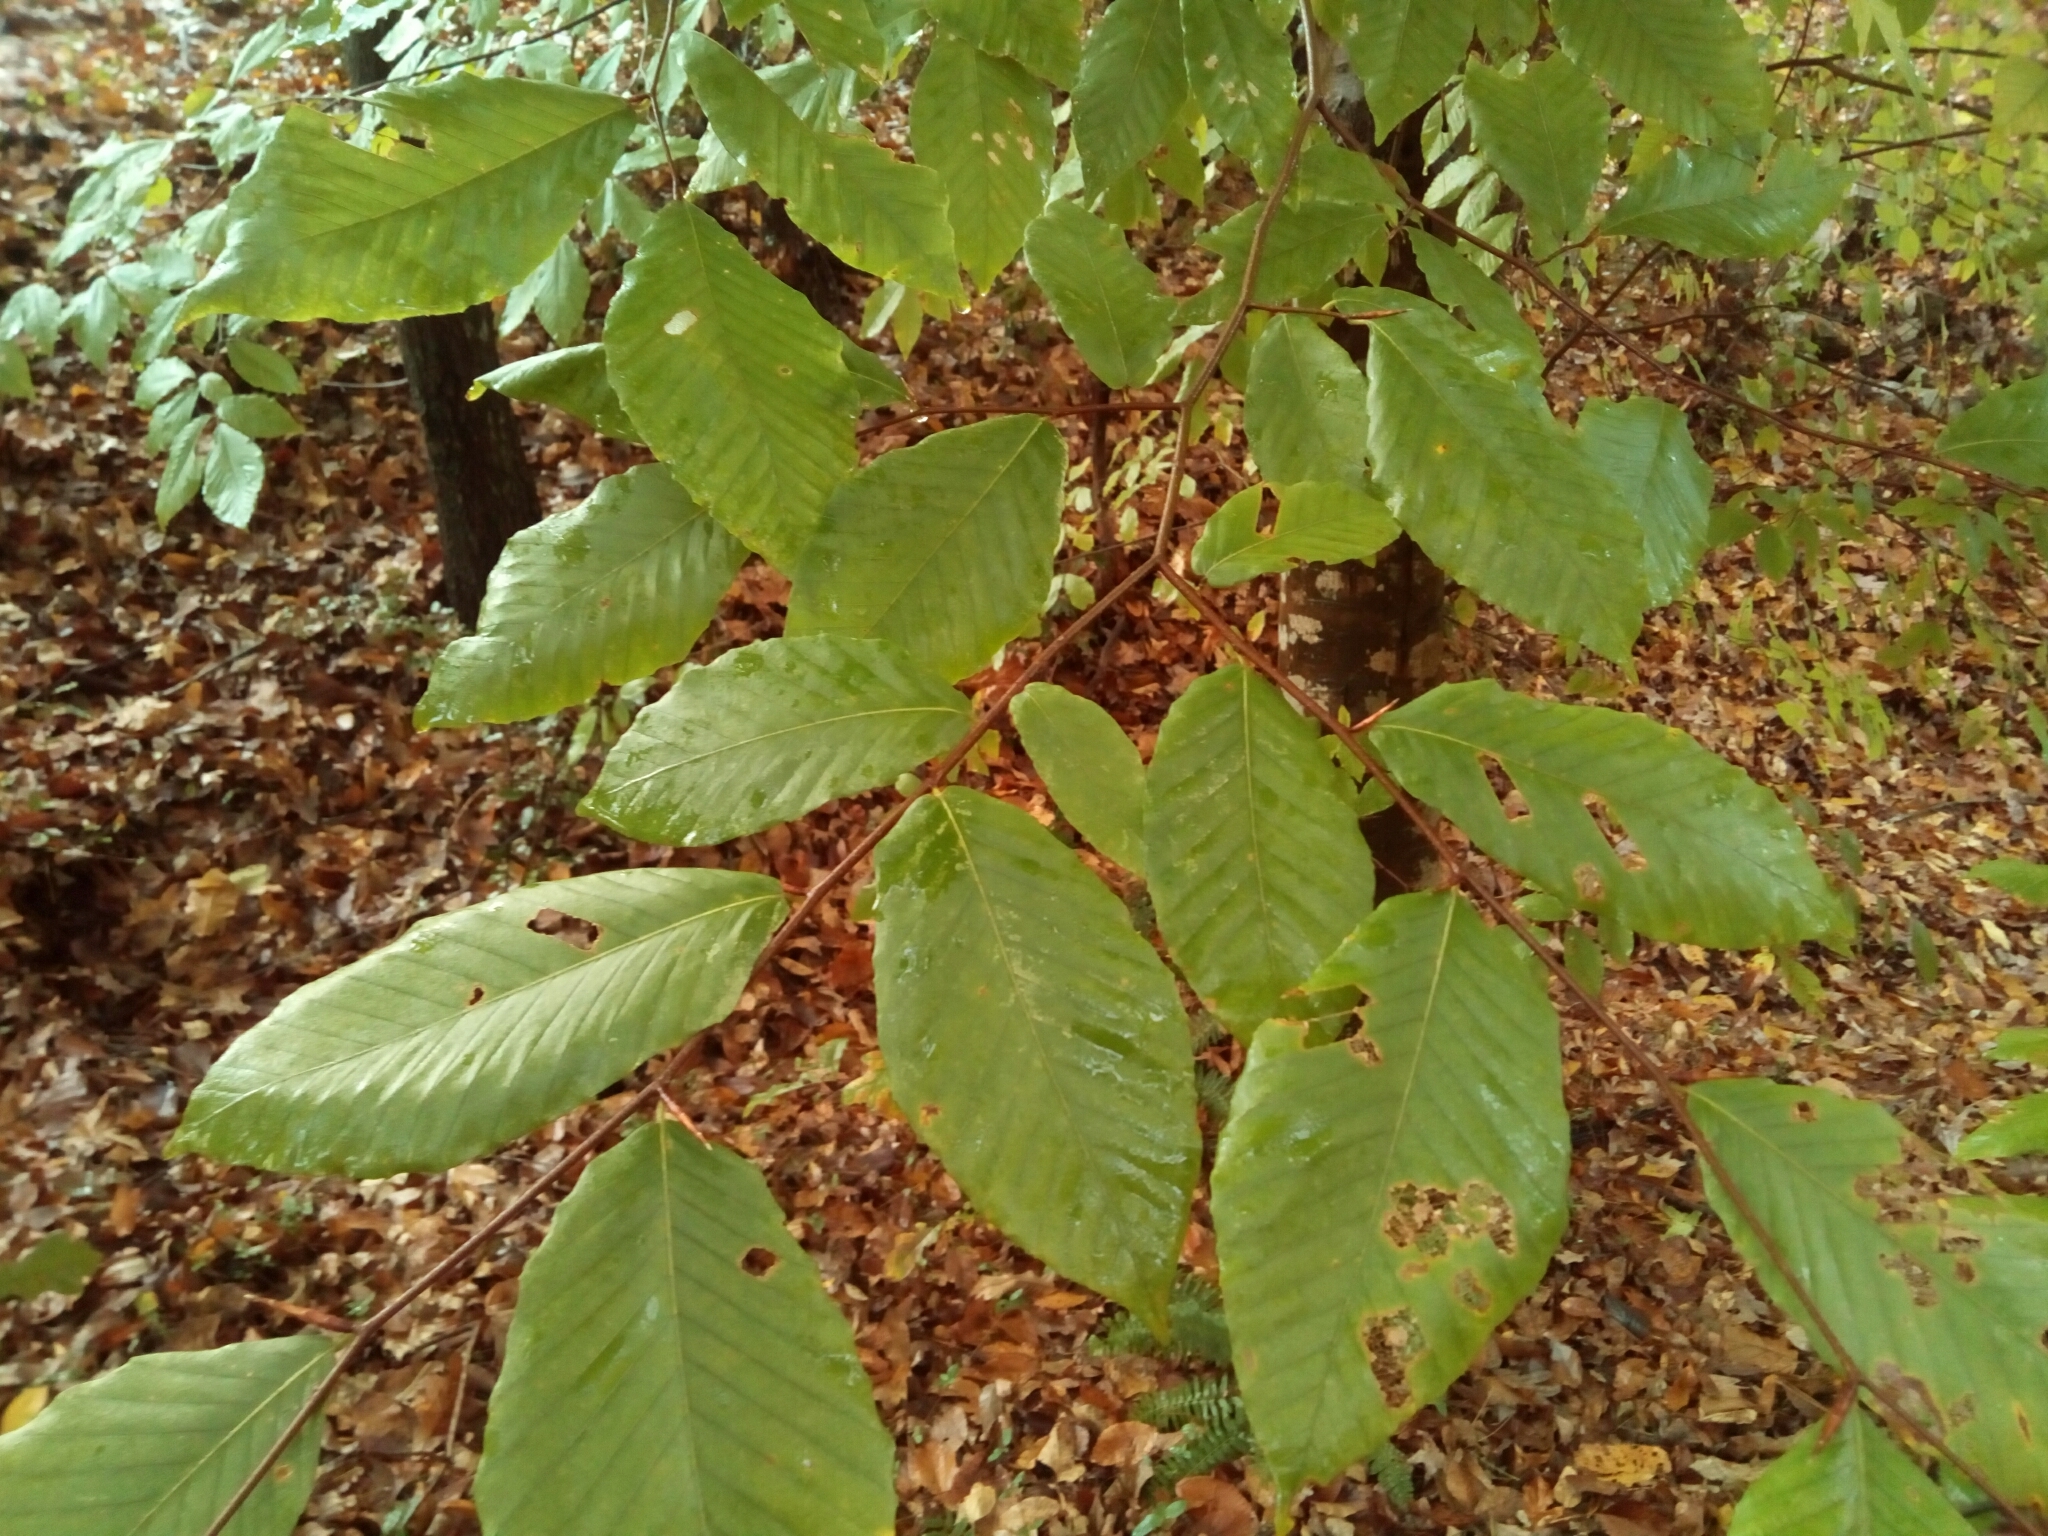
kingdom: Plantae
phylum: Tracheophyta
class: Magnoliopsida
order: Fagales
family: Fagaceae
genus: Fagus
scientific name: Fagus grandifolia
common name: American beech
